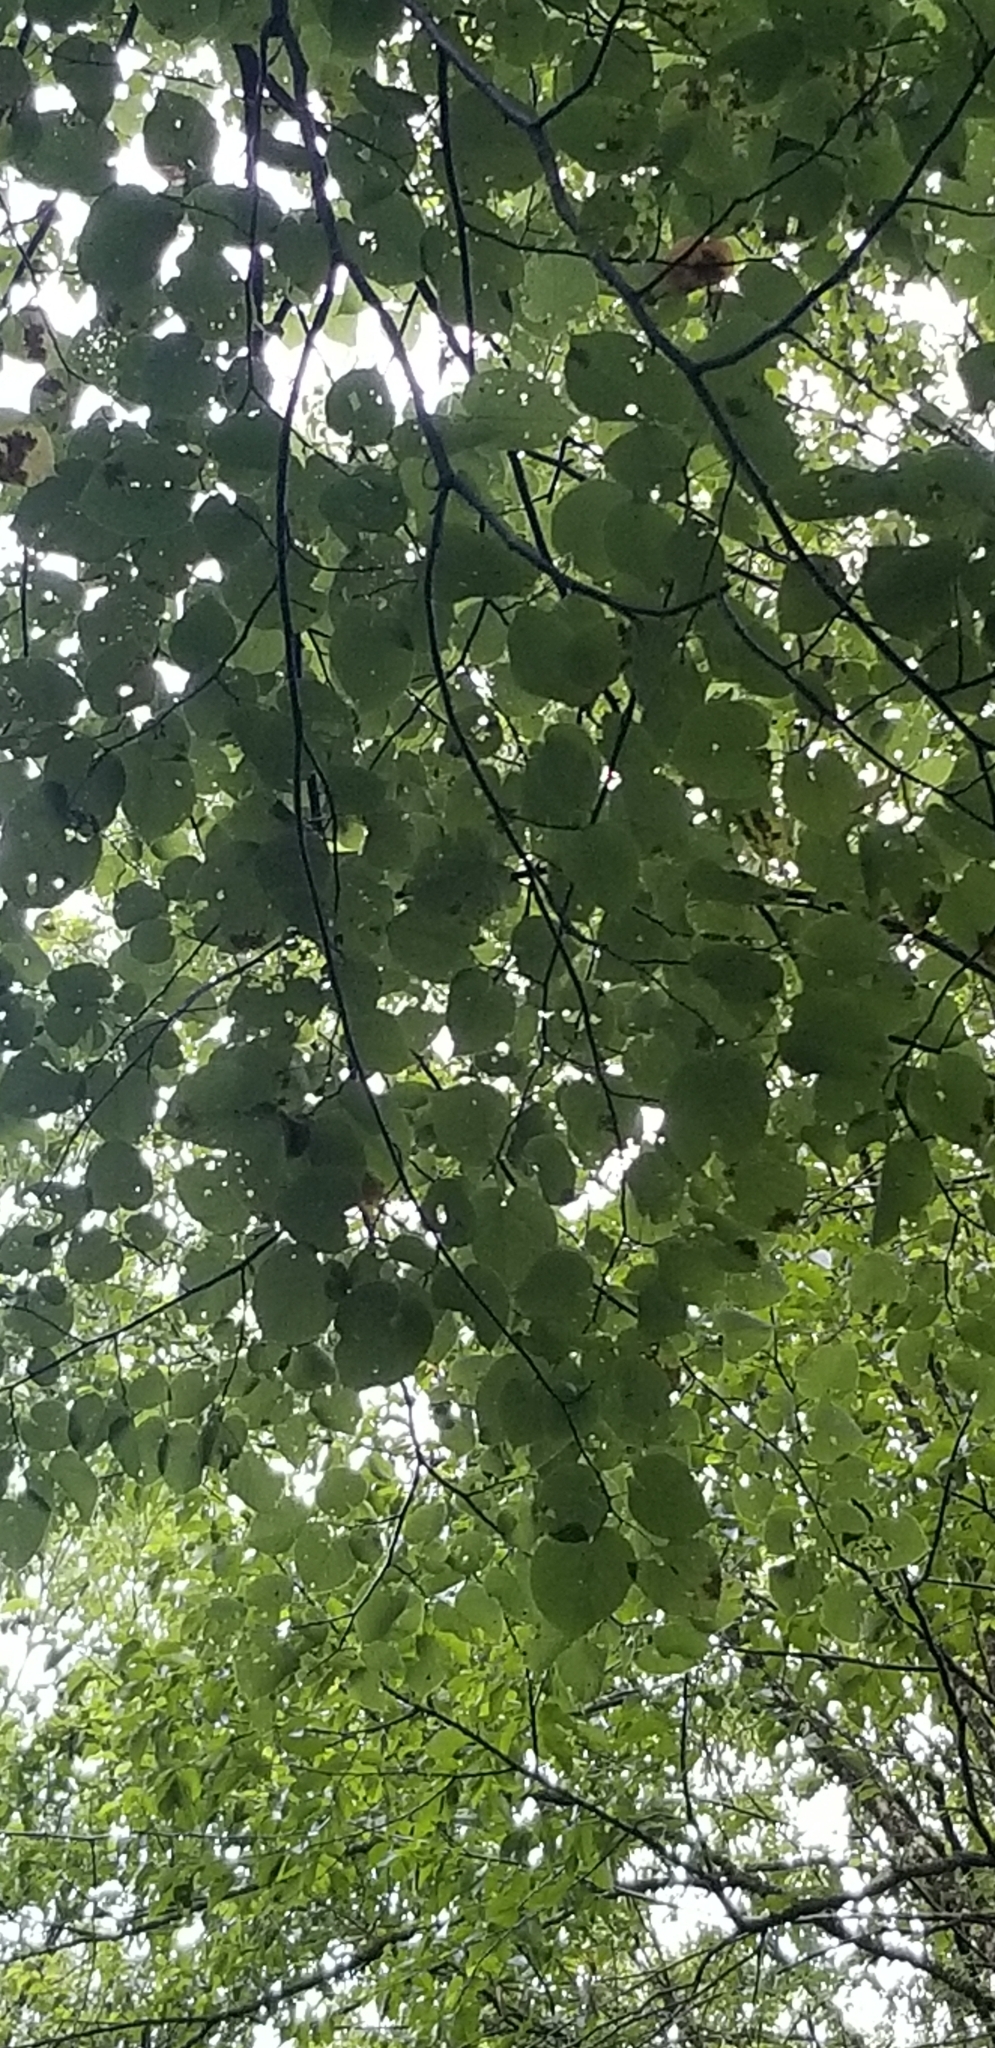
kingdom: Plantae
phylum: Tracheophyta
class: Magnoliopsida
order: Malvales
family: Malvaceae
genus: Tilia
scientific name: Tilia americana
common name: Basswood
